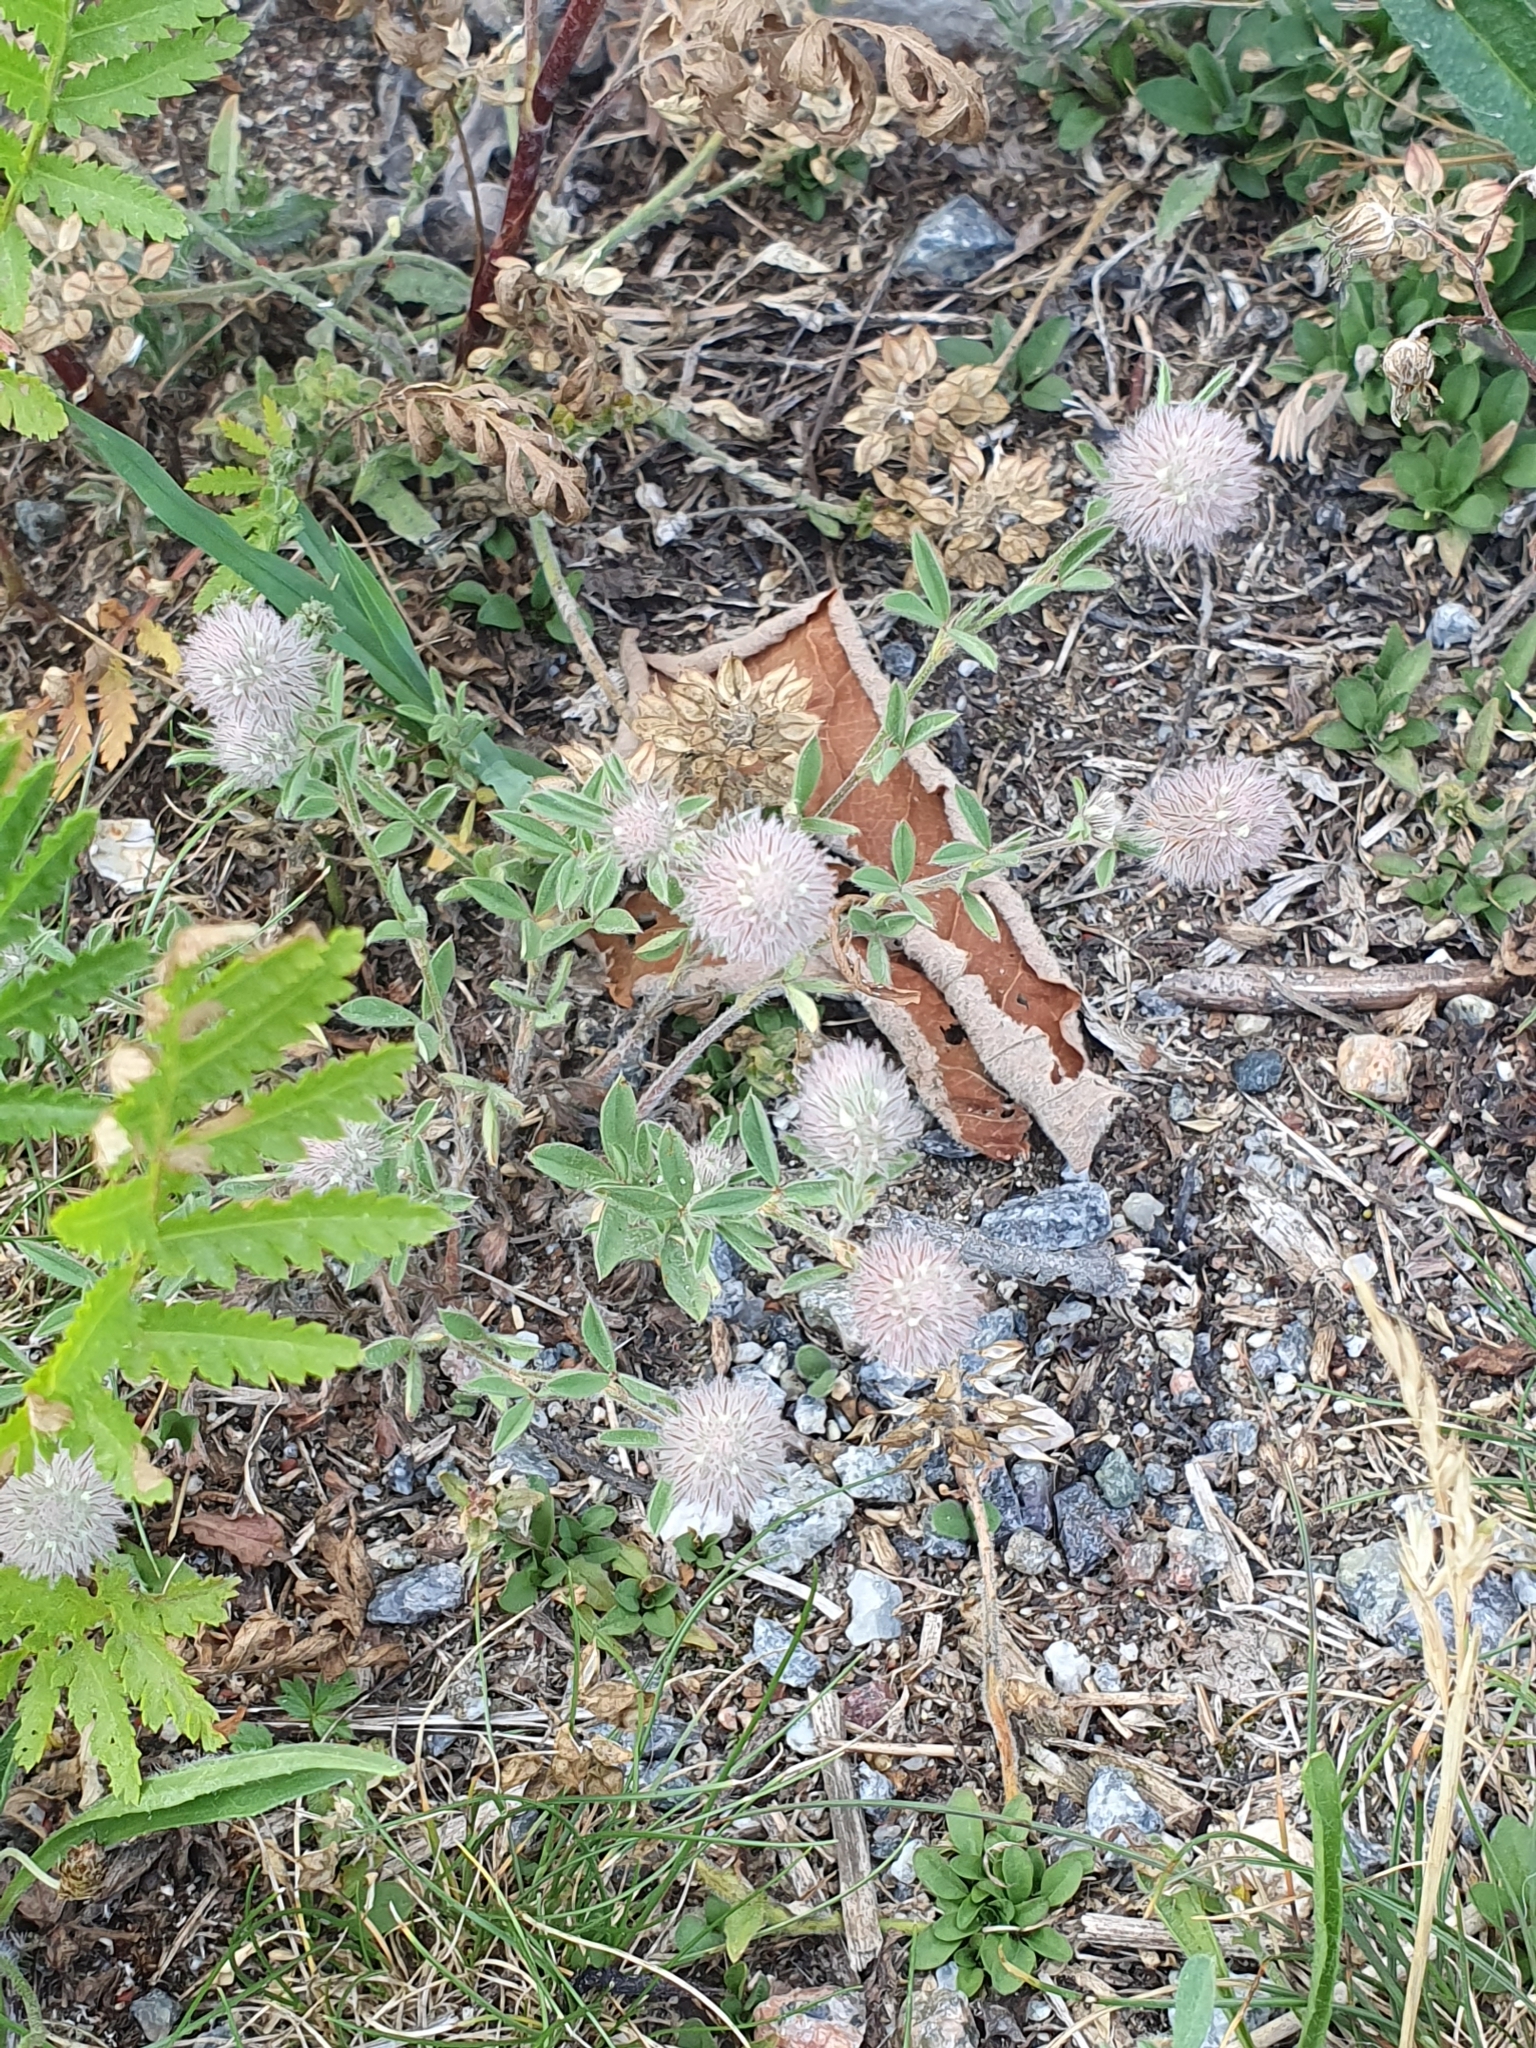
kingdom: Plantae
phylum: Tracheophyta
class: Magnoliopsida
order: Fabales
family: Fabaceae
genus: Trifolium
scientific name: Trifolium arvense
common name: Hare's-foot clover
